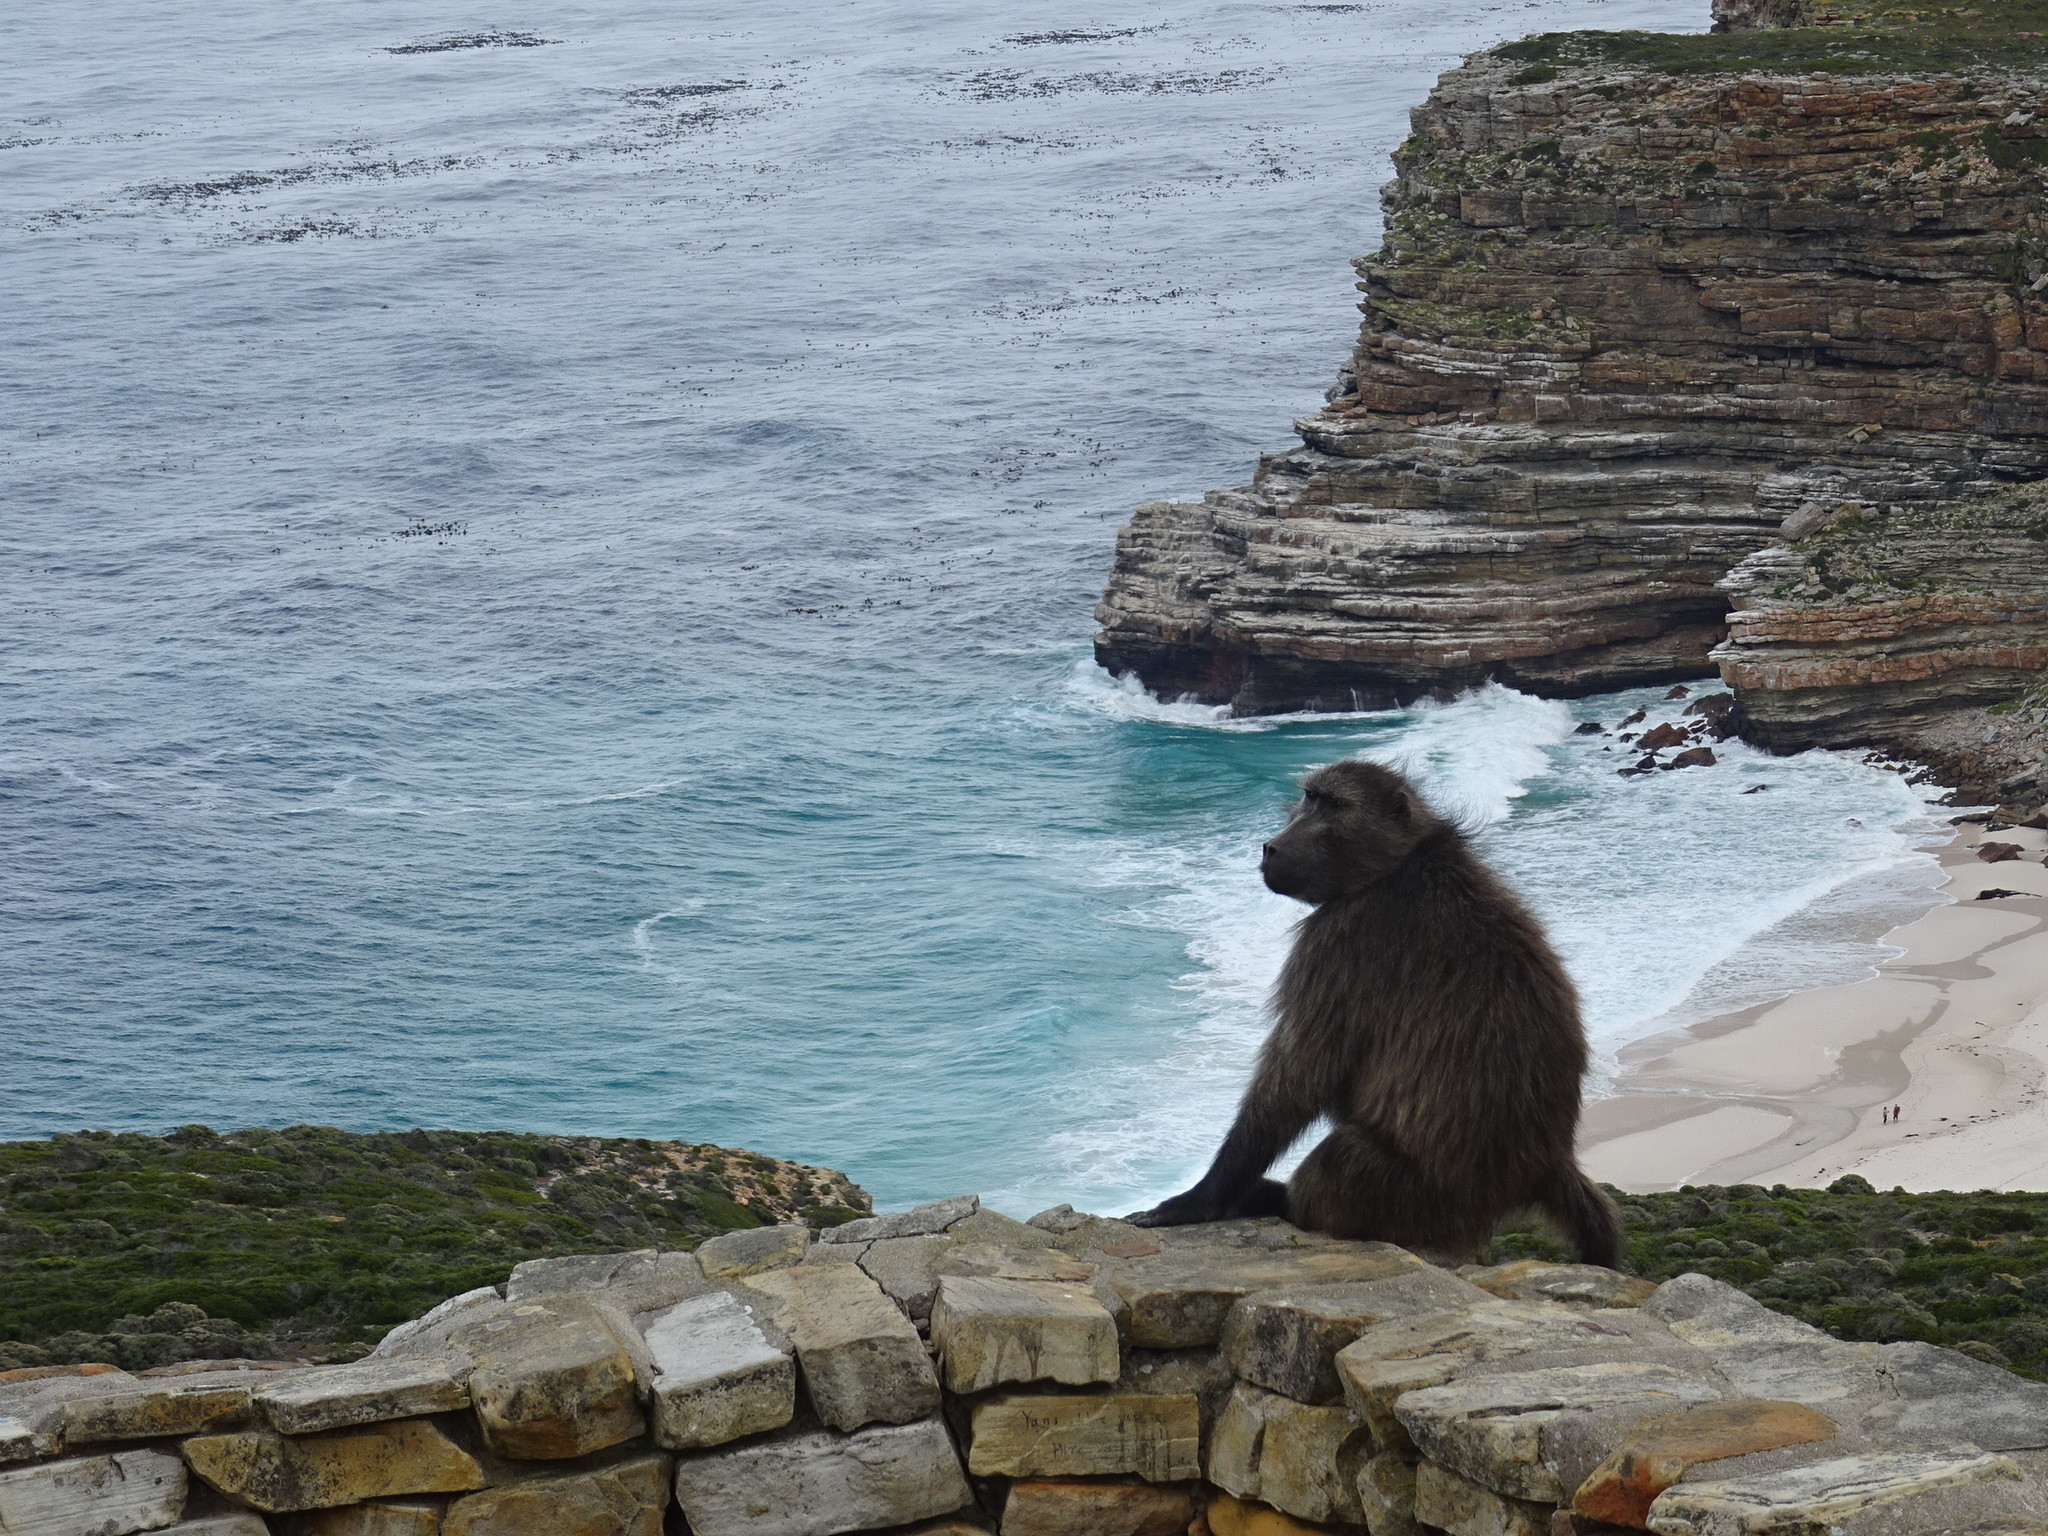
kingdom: Animalia
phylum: Chordata
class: Mammalia
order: Primates
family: Cercopithecidae
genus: Papio
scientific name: Papio ursinus
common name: Chacma baboon
